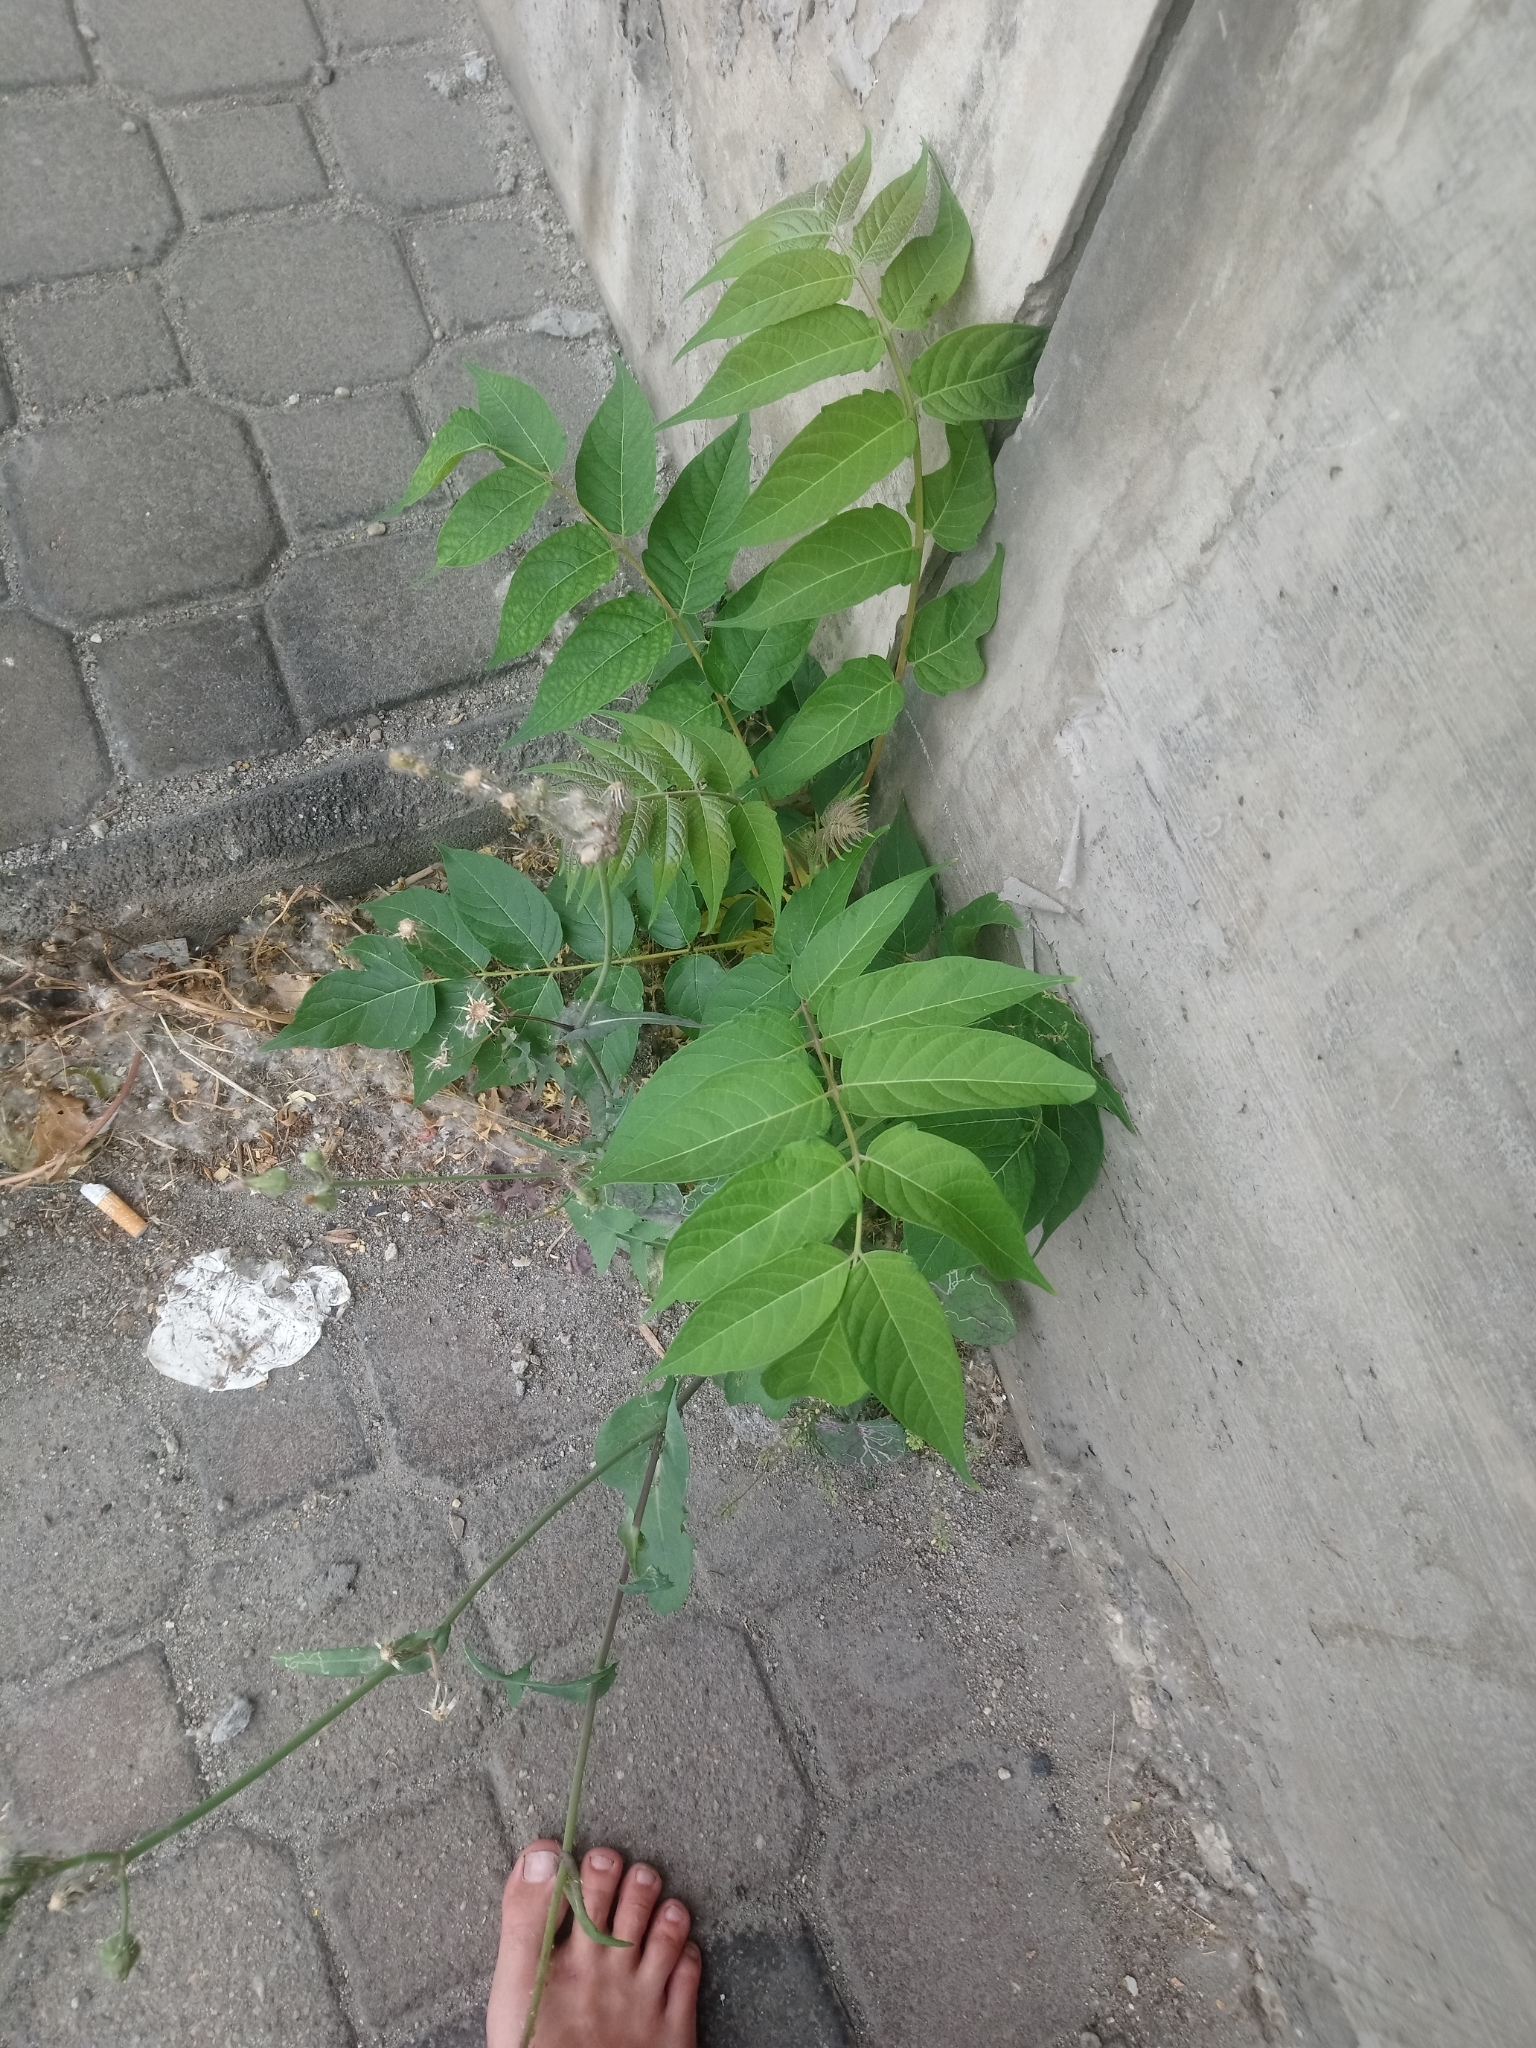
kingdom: Plantae
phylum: Tracheophyta
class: Magnoliopsida
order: Sapindales
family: Simaroubaceae
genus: Ailanthus
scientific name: Ailanthus altissima
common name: Tree-of-heaven
